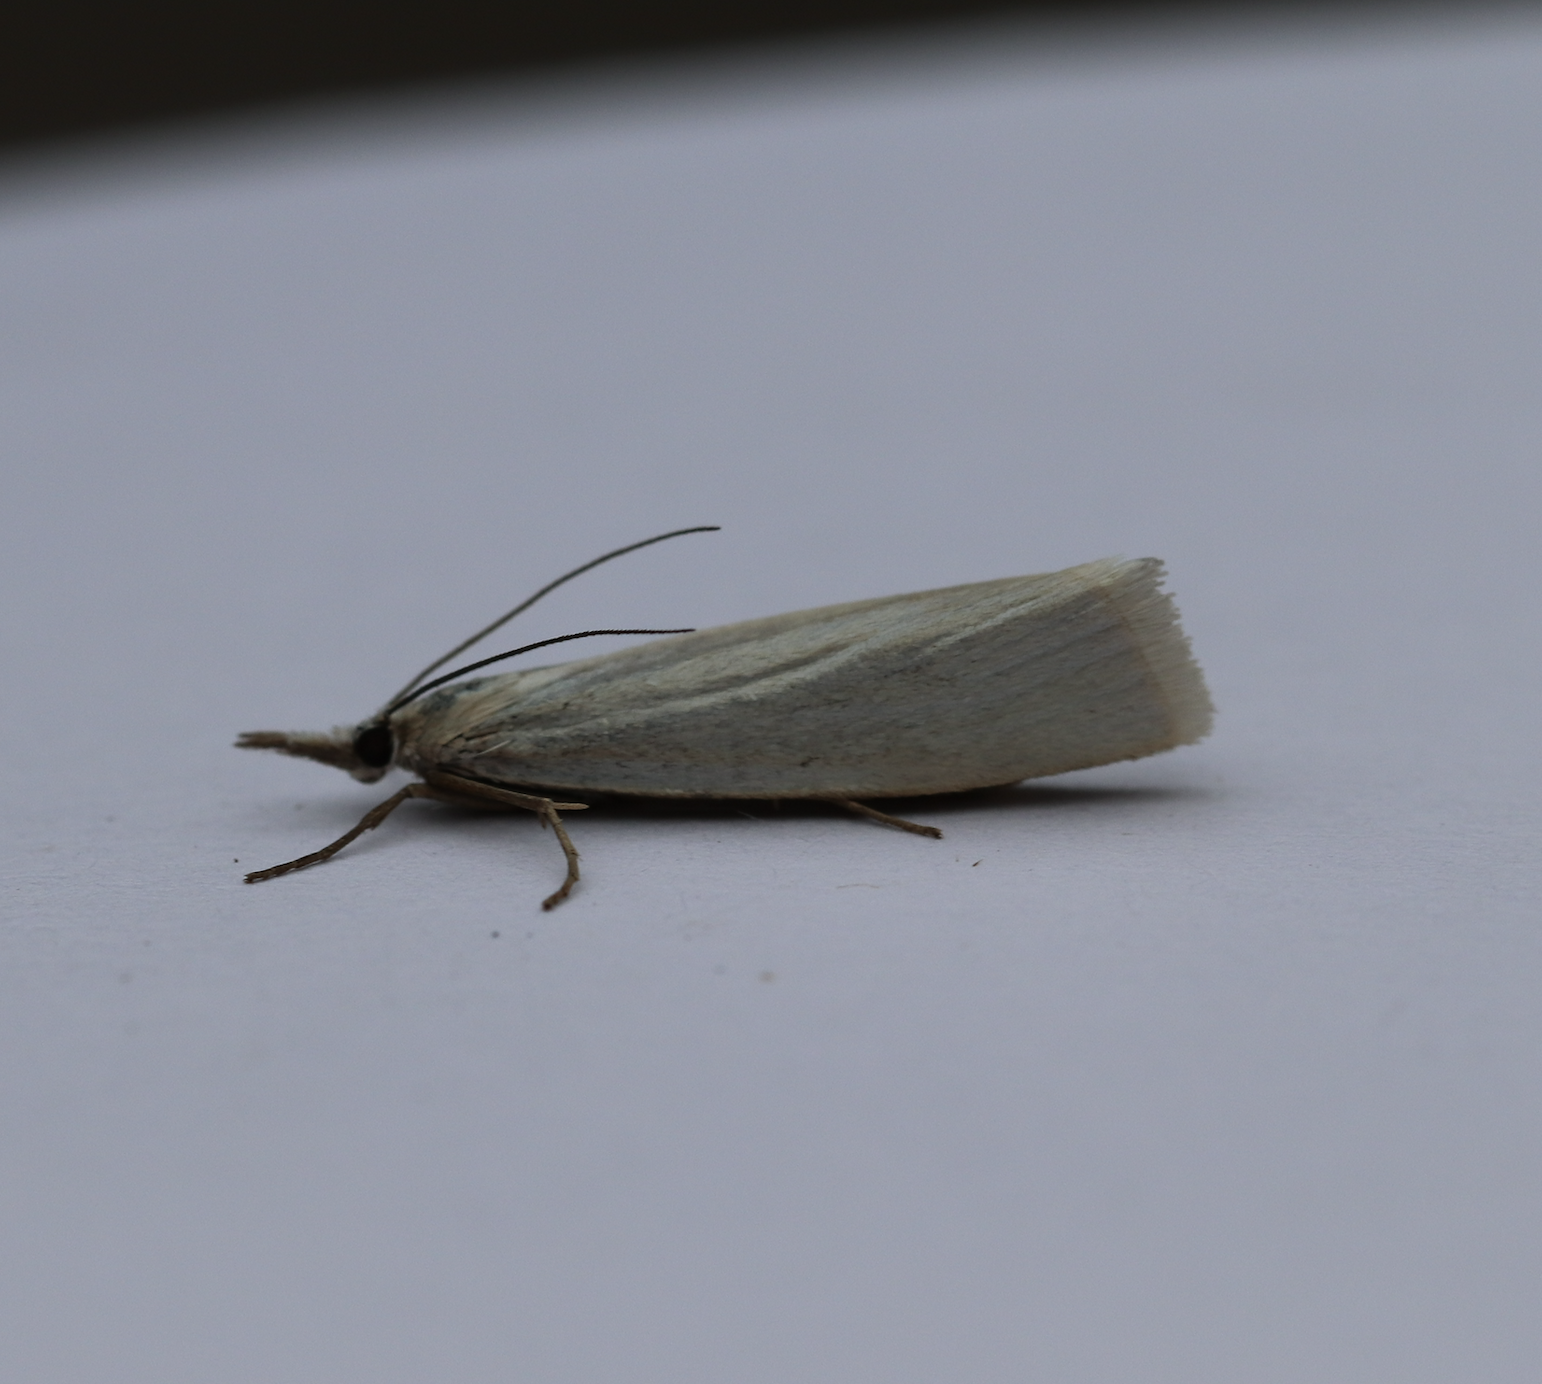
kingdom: Animalia
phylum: Arthropoda
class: Insecta
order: Lepidoptera
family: Crambidae
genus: Crambus
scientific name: Crambus perlellus
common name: Yellow satin veneer
